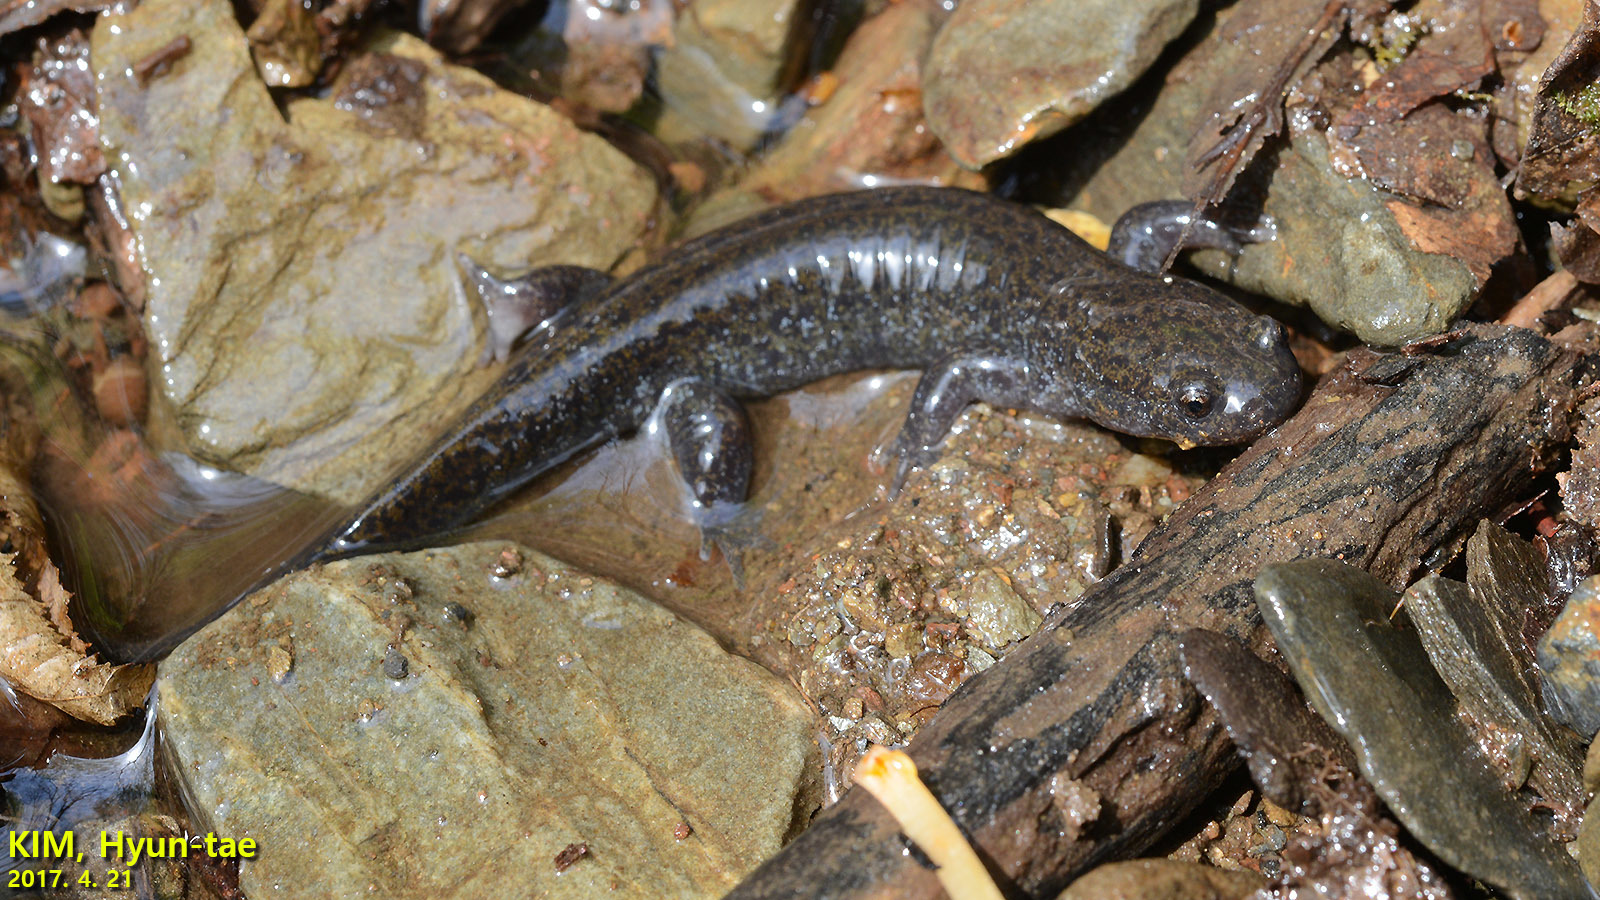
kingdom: Animalia
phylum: Chordata
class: Amphibia
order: Caudata
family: Hynobiidae
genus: Hynobius
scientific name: Hynobius leechii
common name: Gensan salamander
